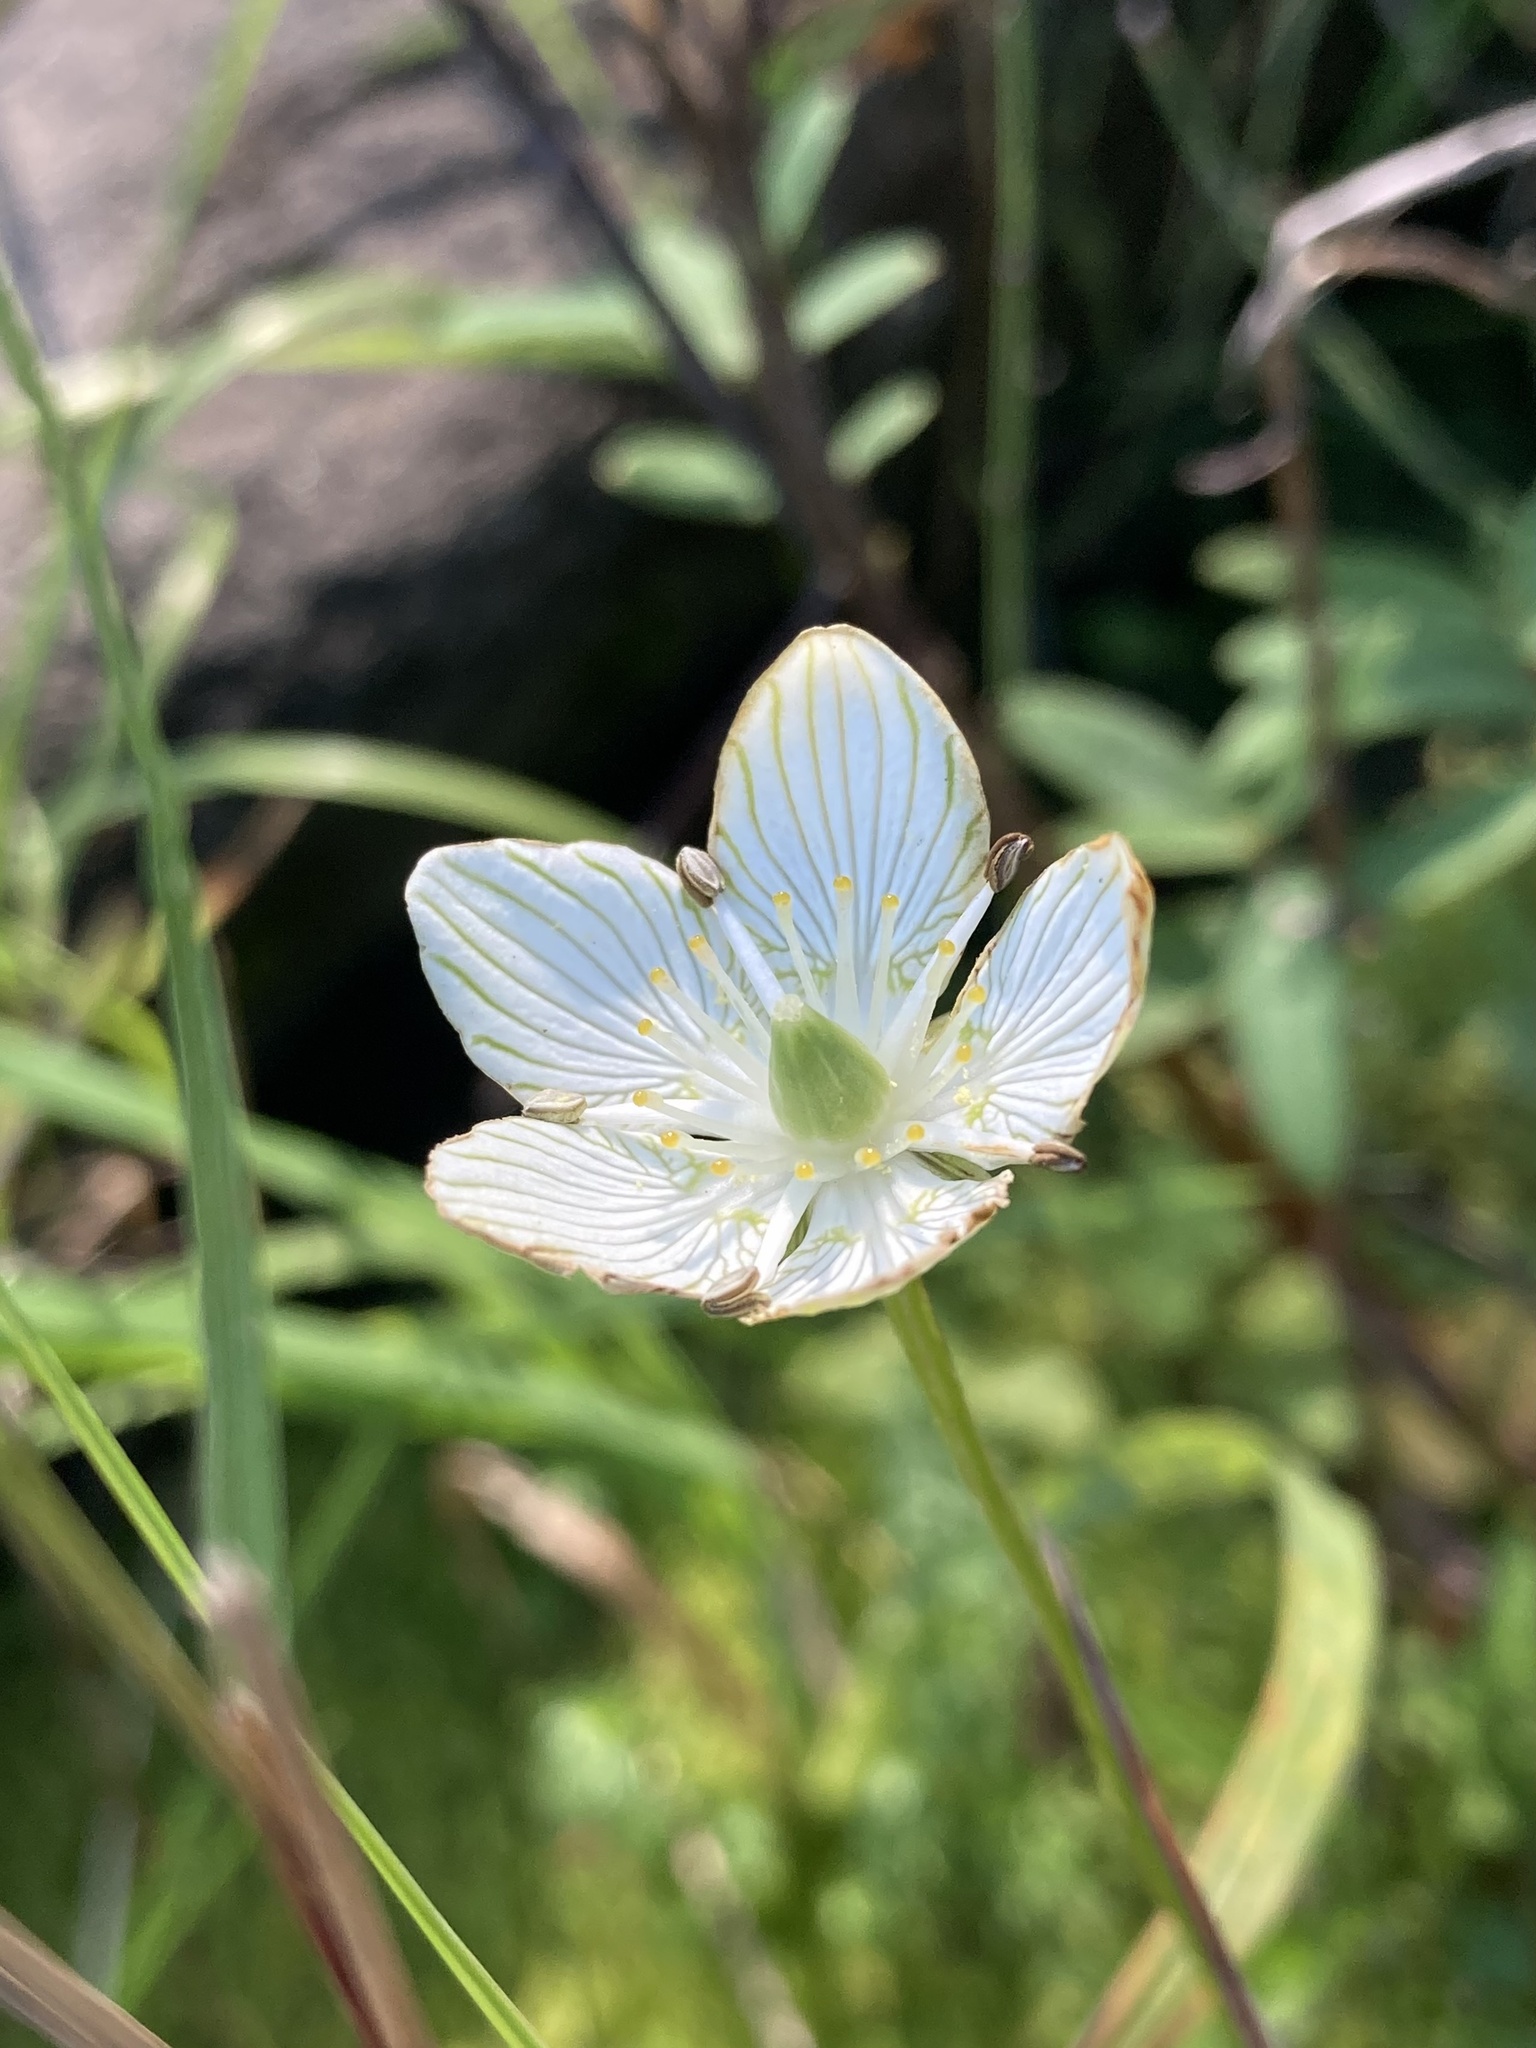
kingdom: Plantae
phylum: Tracheophyta
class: Magnoliopsida
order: Celastrales
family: Parnassiaceae
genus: Parnassia
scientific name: Parnassia glauca
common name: American grass-of-parnassus
